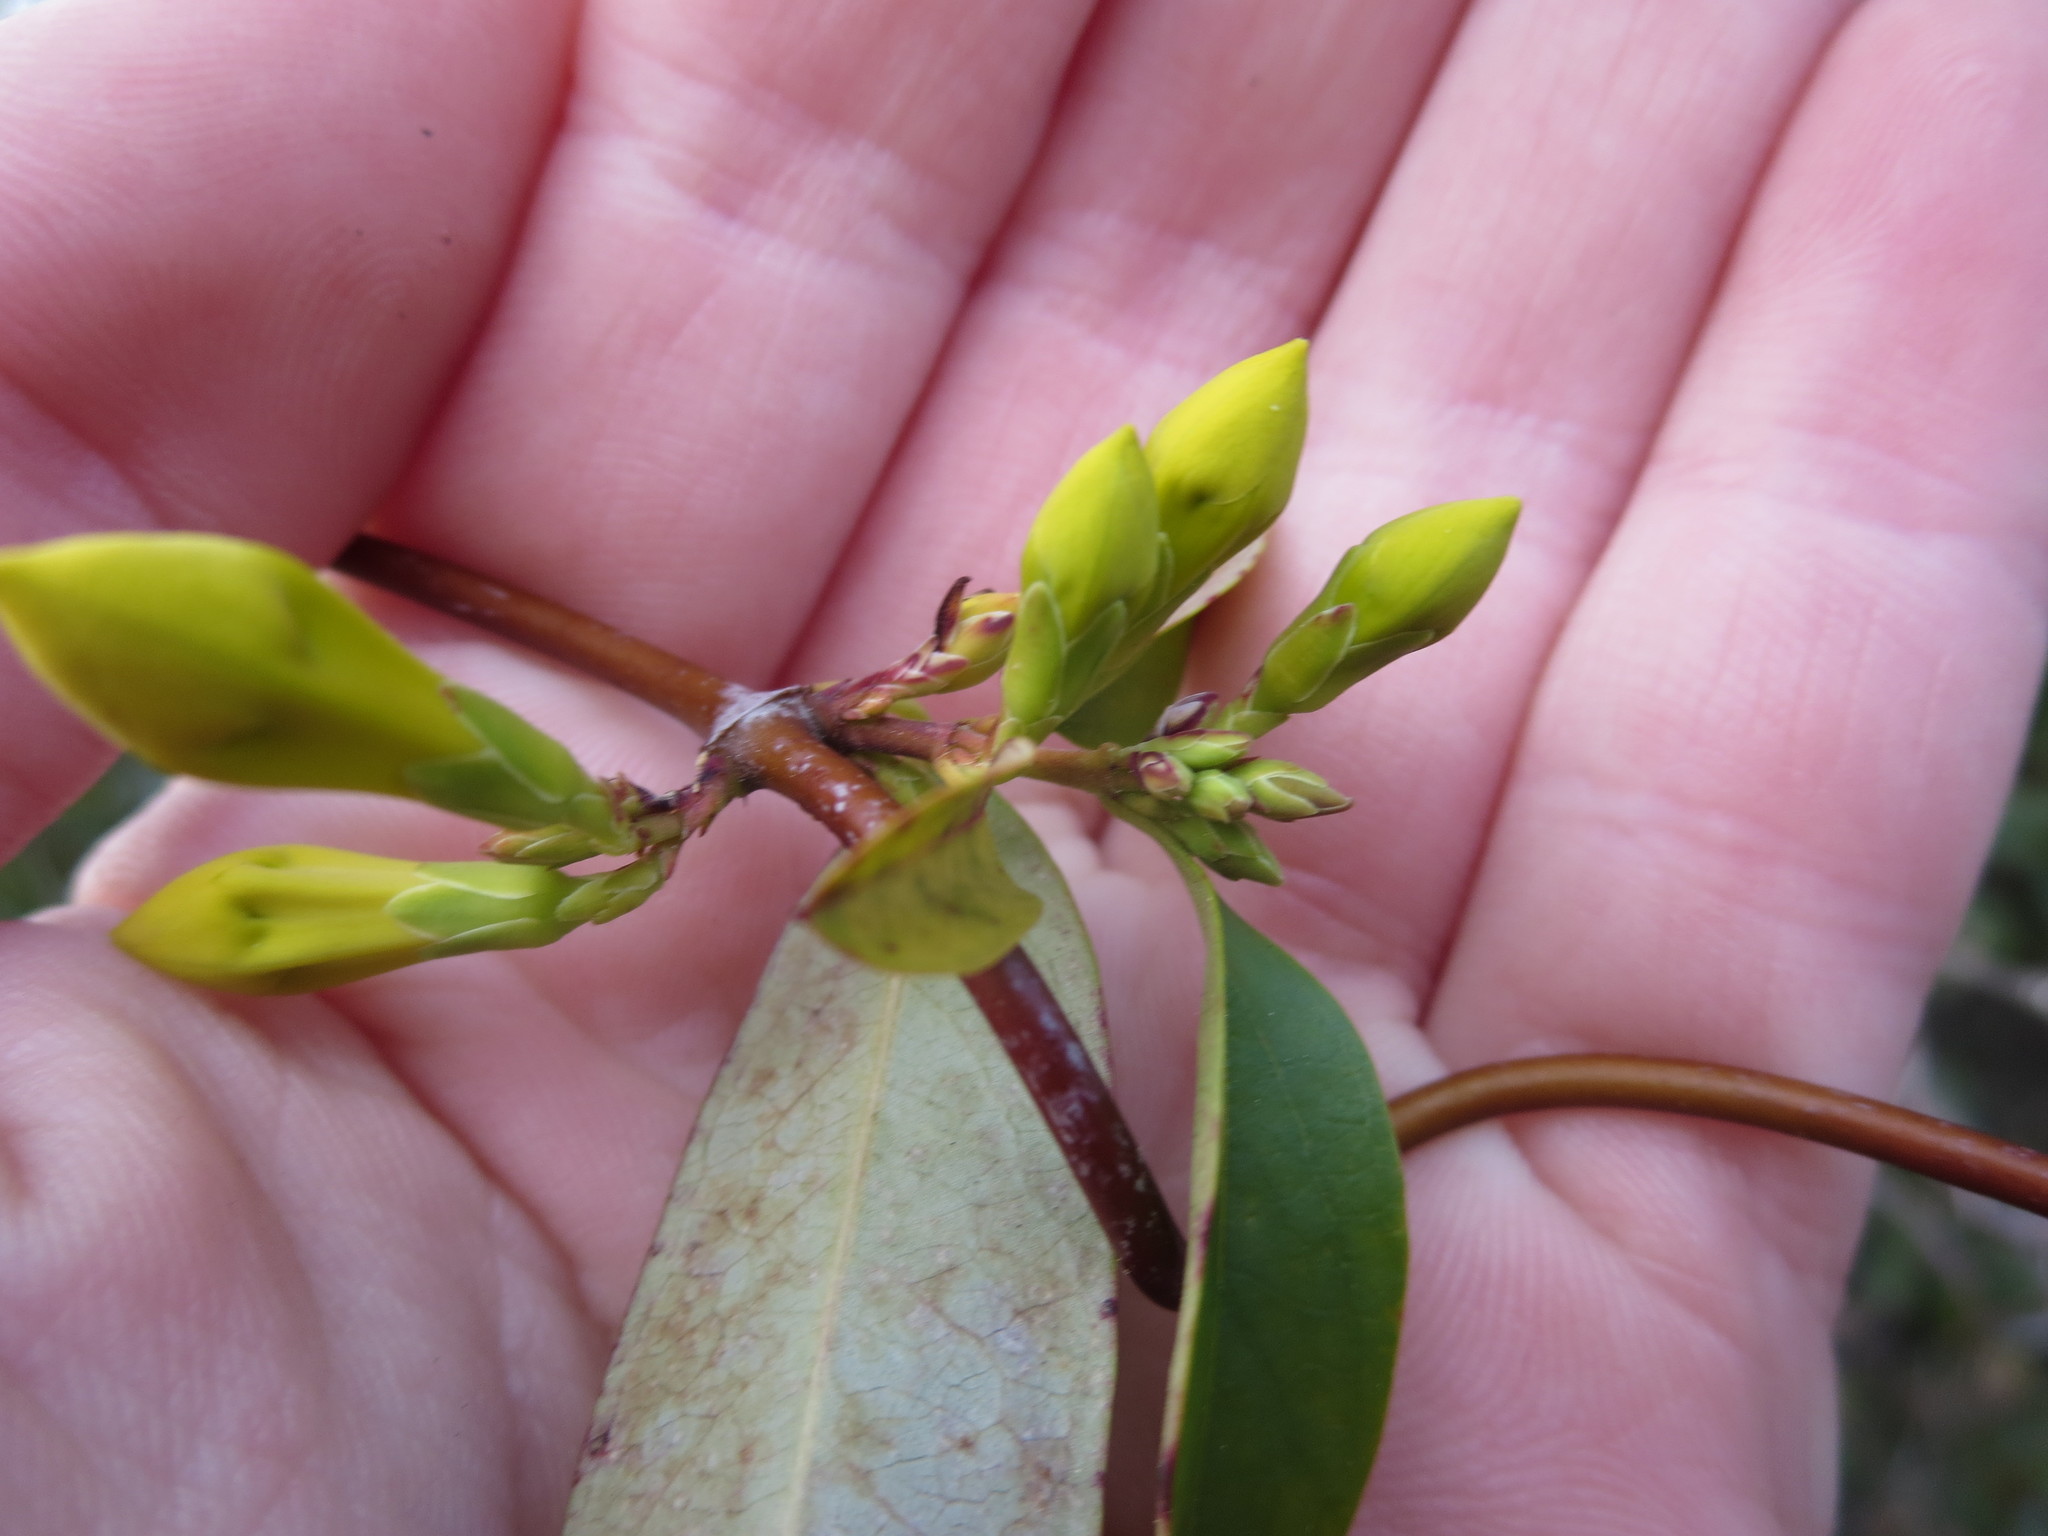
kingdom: Plantae
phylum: Tracheophyta
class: Magnoliopsida
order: Gentianales
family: Gelsemiaceae
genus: Gelsemium
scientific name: Gelsemium sempervirens
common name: Carolina-jasmine
